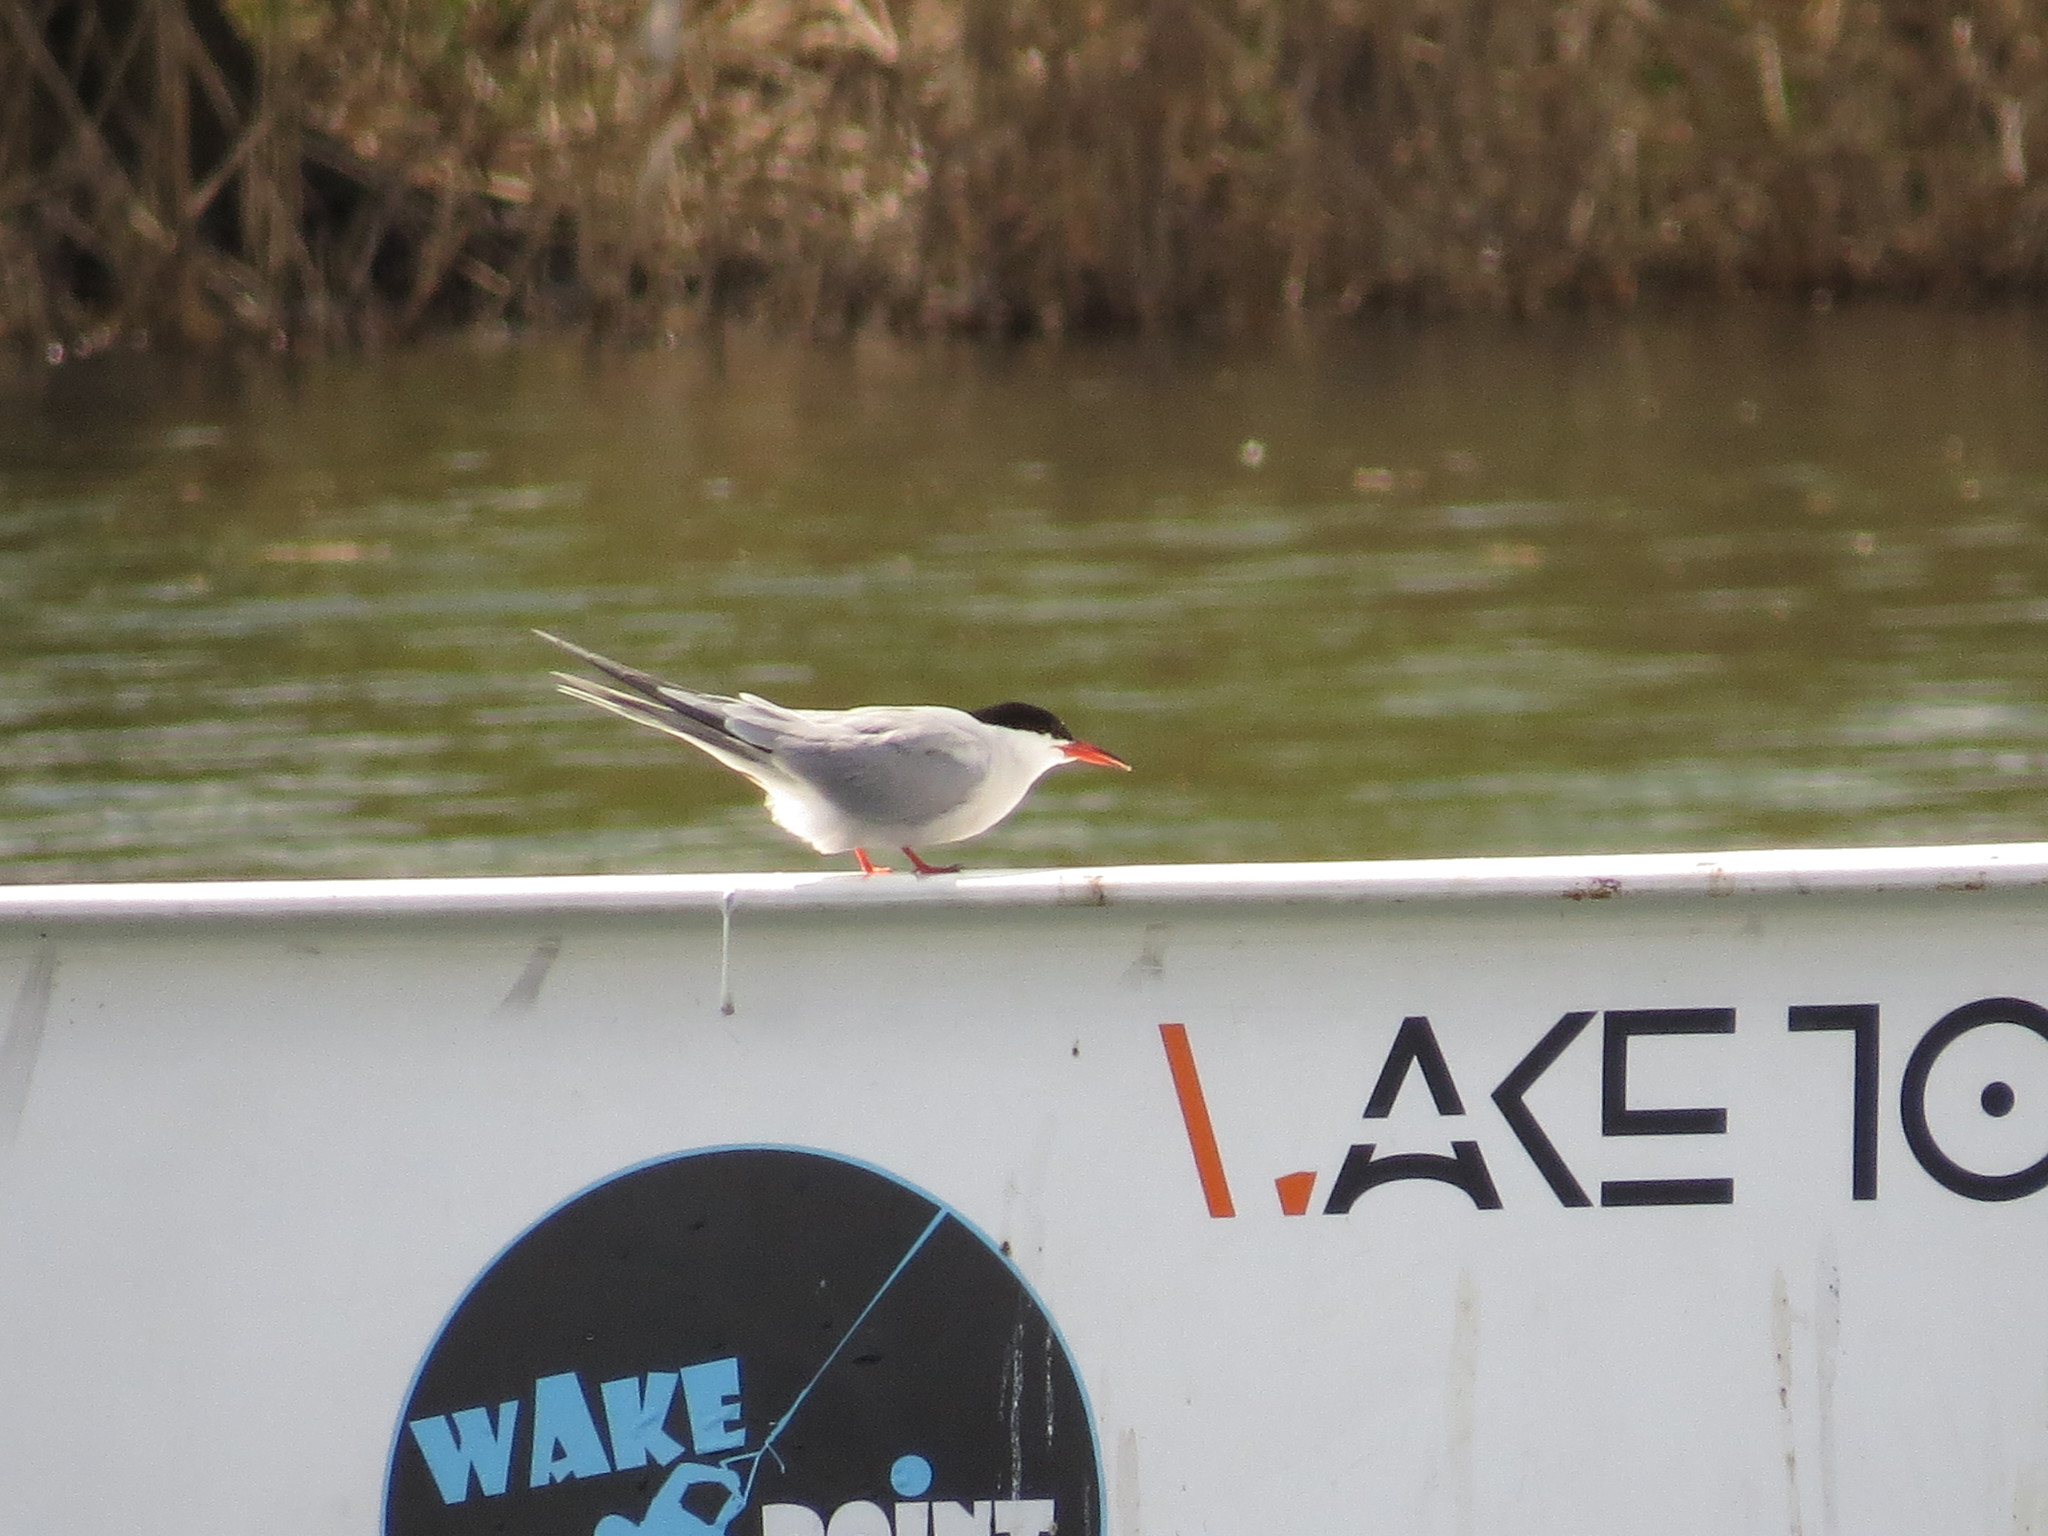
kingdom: Animalia
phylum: Chordata
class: Aves
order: Charadriiformes
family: Laridae
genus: Sterna
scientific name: Sterna hirundo
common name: Common tern
